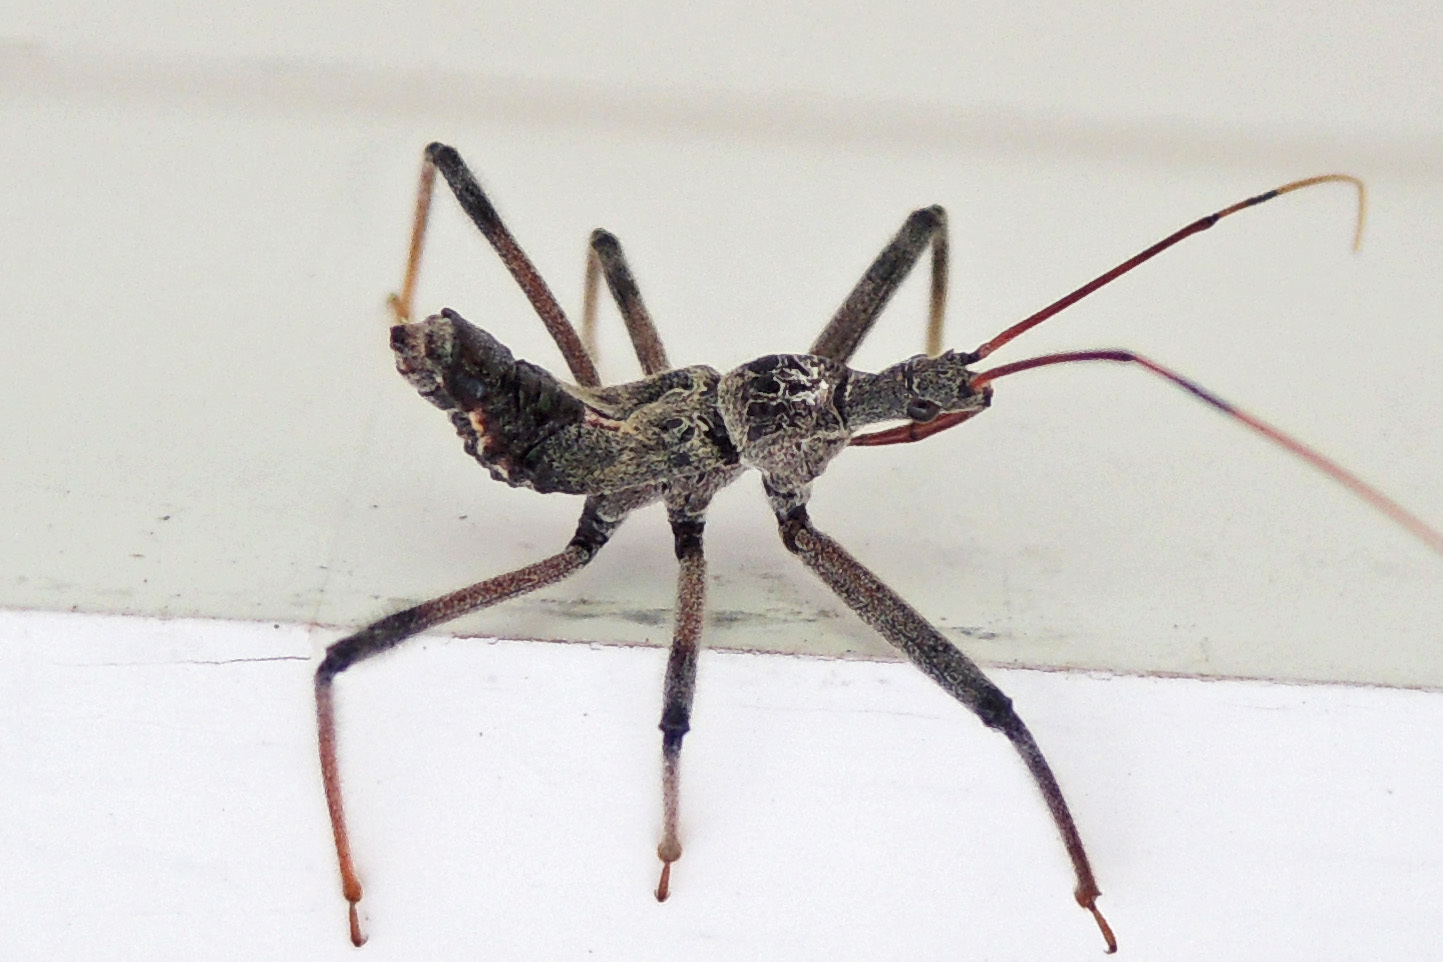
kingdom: Animalia
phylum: Arthropoda
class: Insecta
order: Hemiptera
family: Reduviidae
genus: Arilus
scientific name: Arilus cristatus
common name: North american wheel bug
